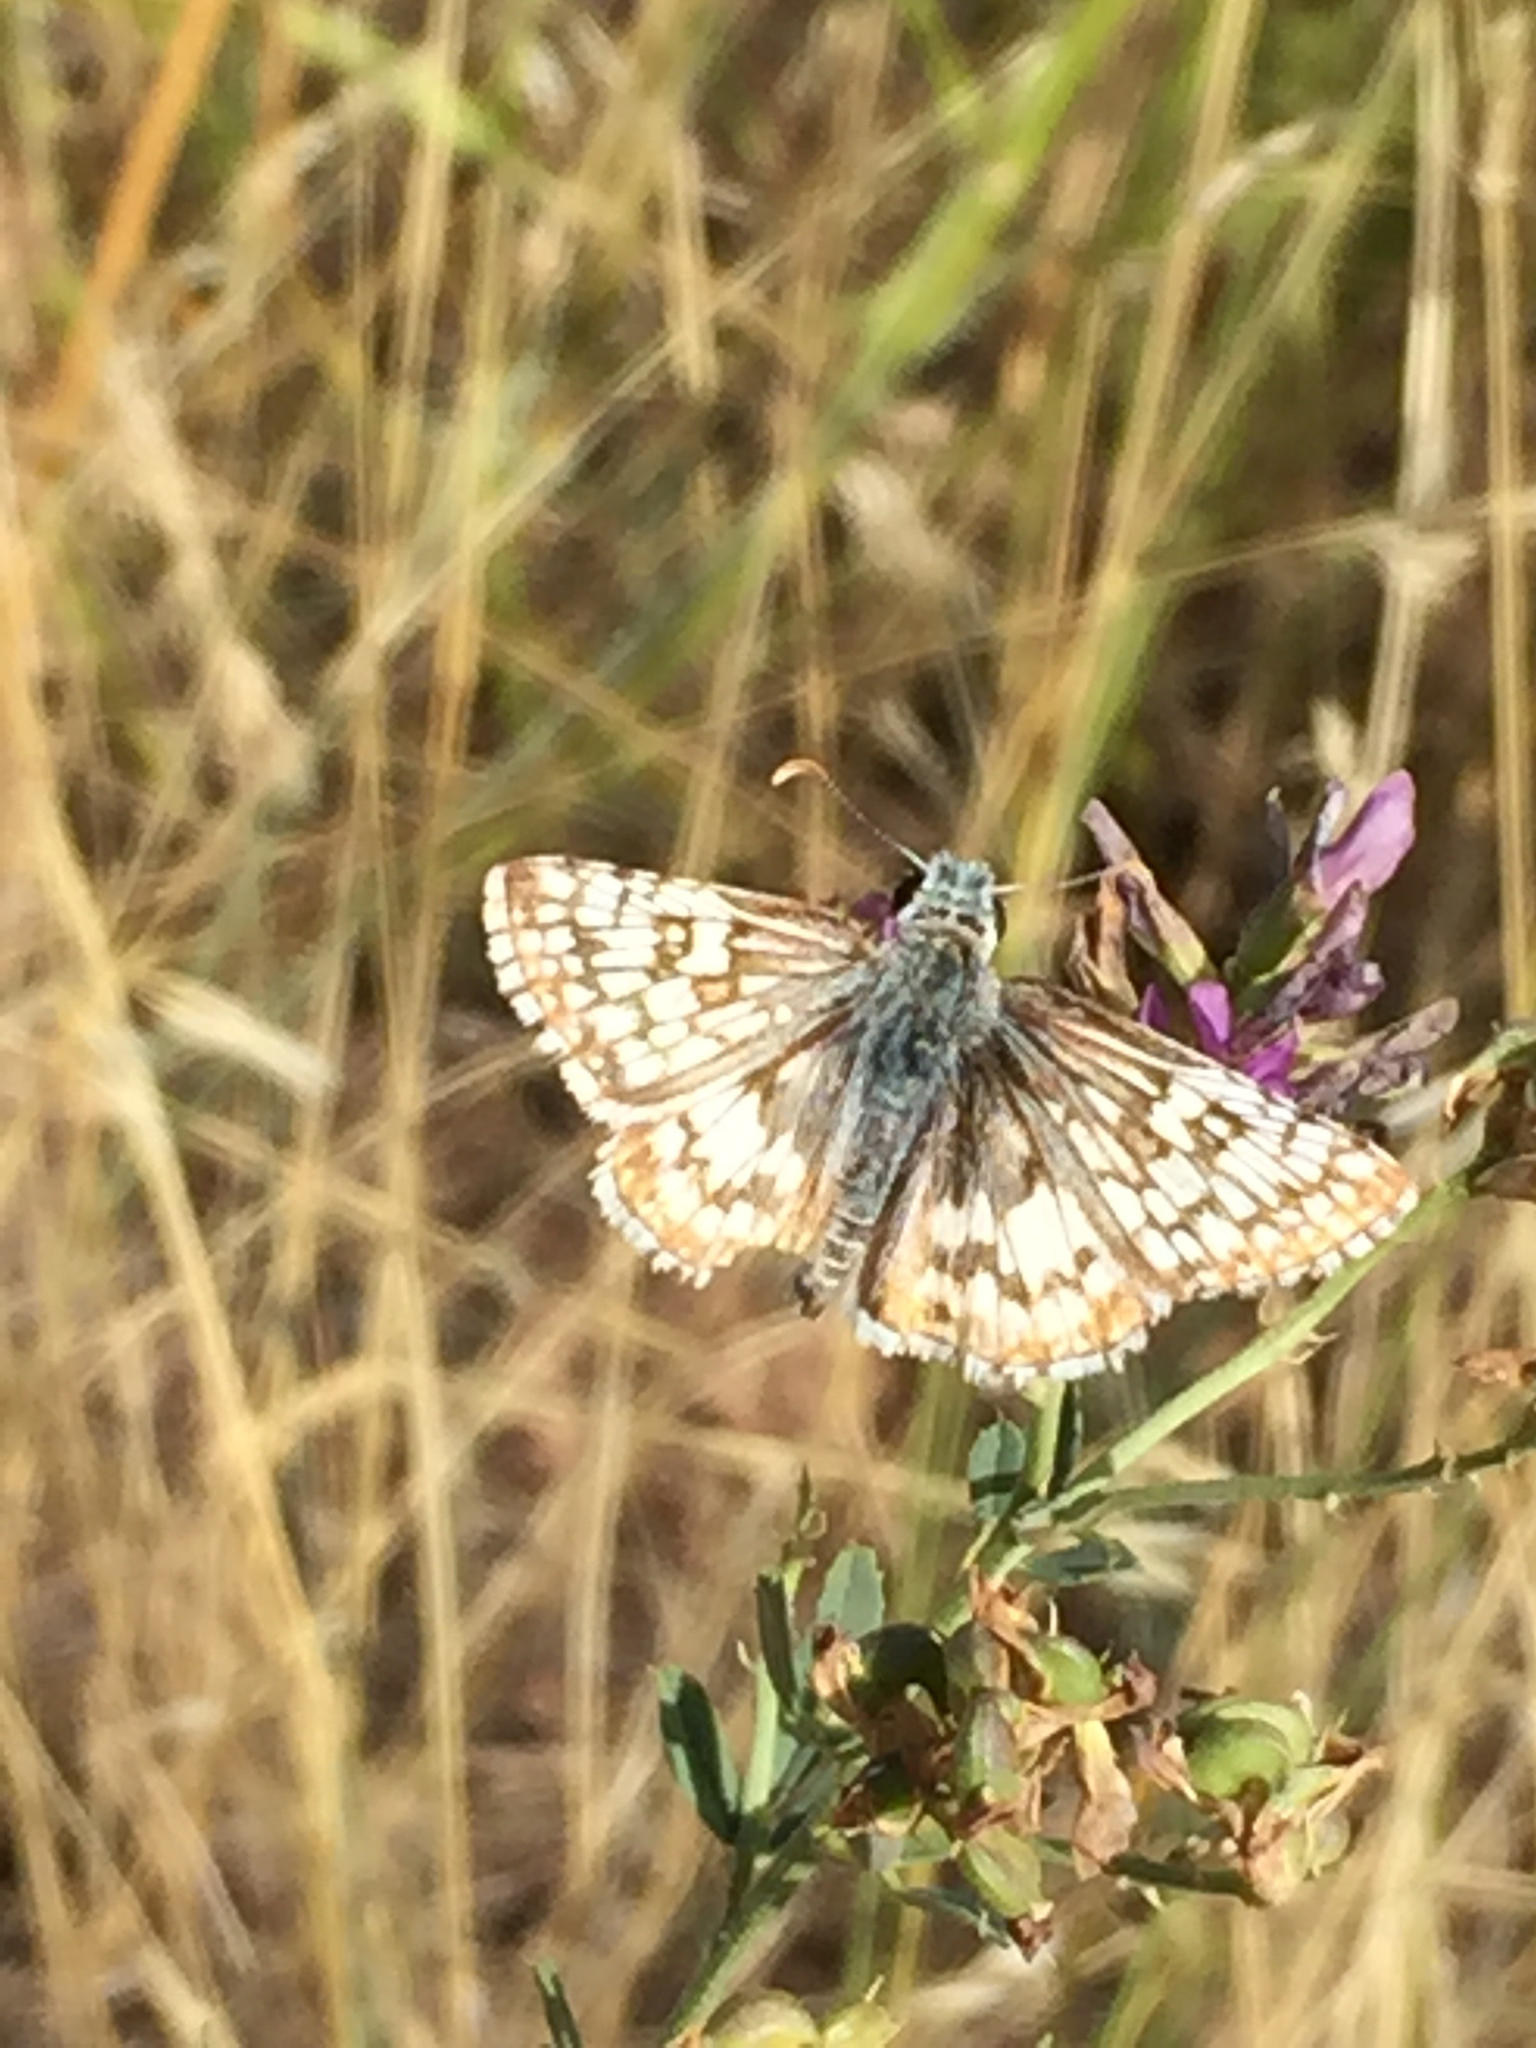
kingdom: Animalia
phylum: Arthropoda
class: Insecta
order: Lepidoptera
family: Hesperiidae
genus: Burnsius
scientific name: Burnsius communis
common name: Common checkered-skipper
